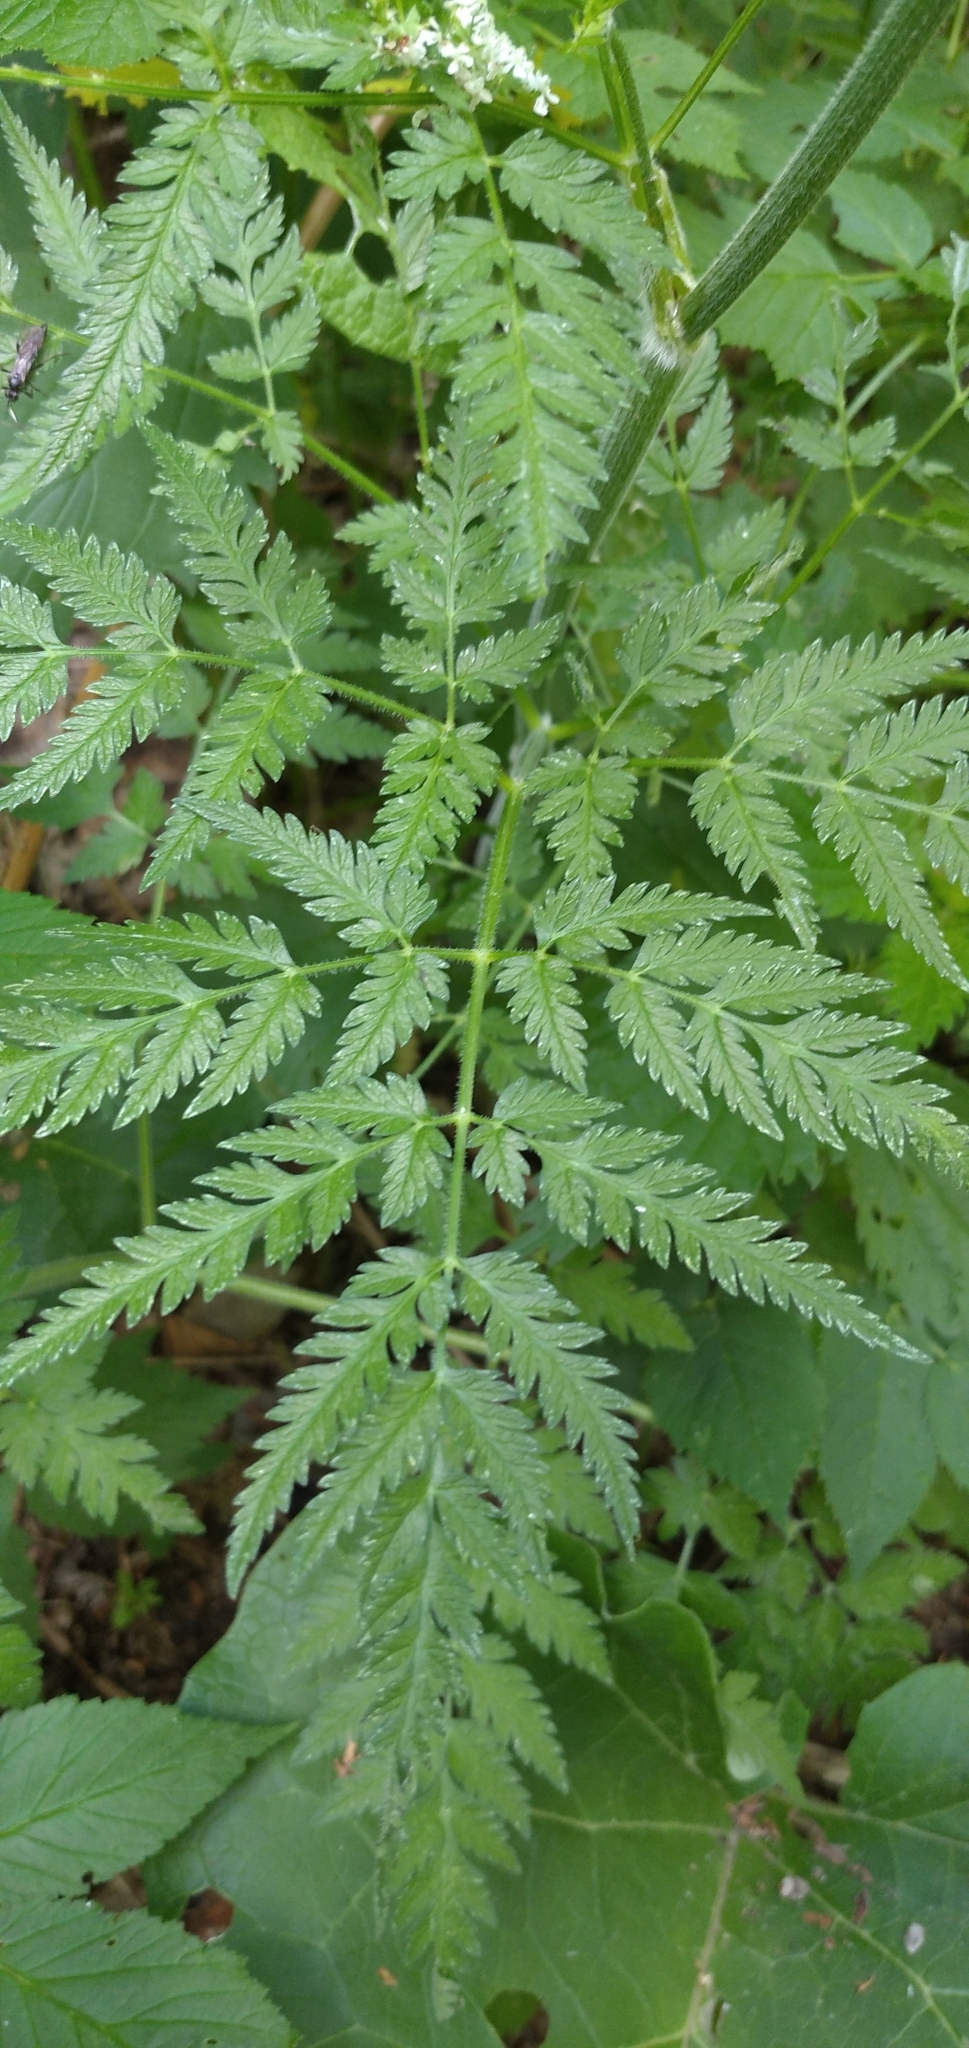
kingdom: Plantae
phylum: Tracheophyta
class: Magnoliopsida
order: Apiales
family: Apiaceae
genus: Anthriscus
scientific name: Anthriscus sylvestris
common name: Cow parsley
